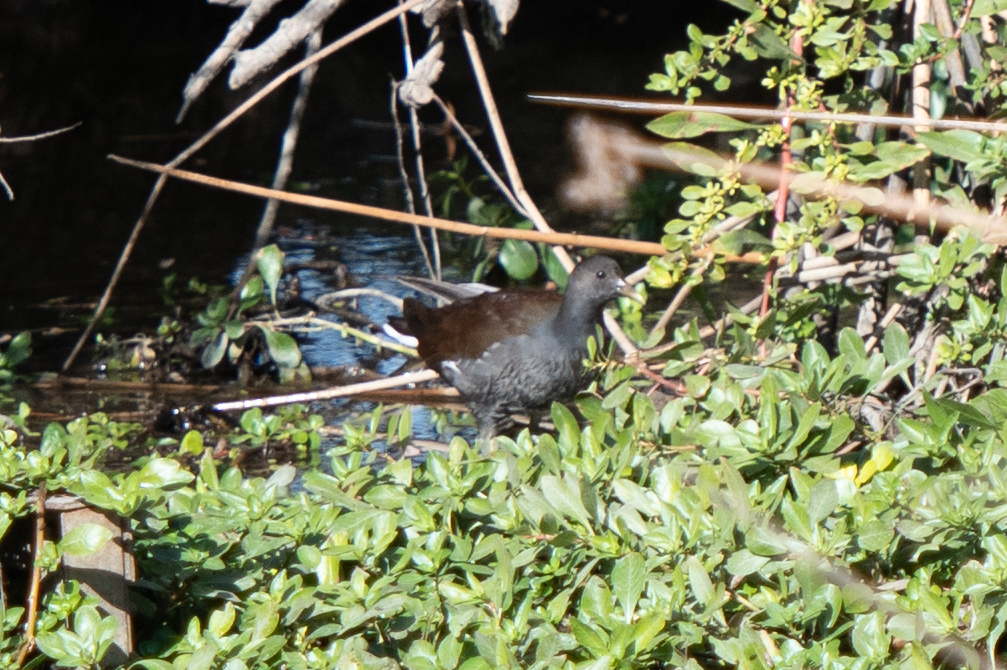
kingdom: Animalia
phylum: Chordata
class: Aves
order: Gruiformes
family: Rallidae
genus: Gallinula
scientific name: Gallinula chloropus
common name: Common moorhen
